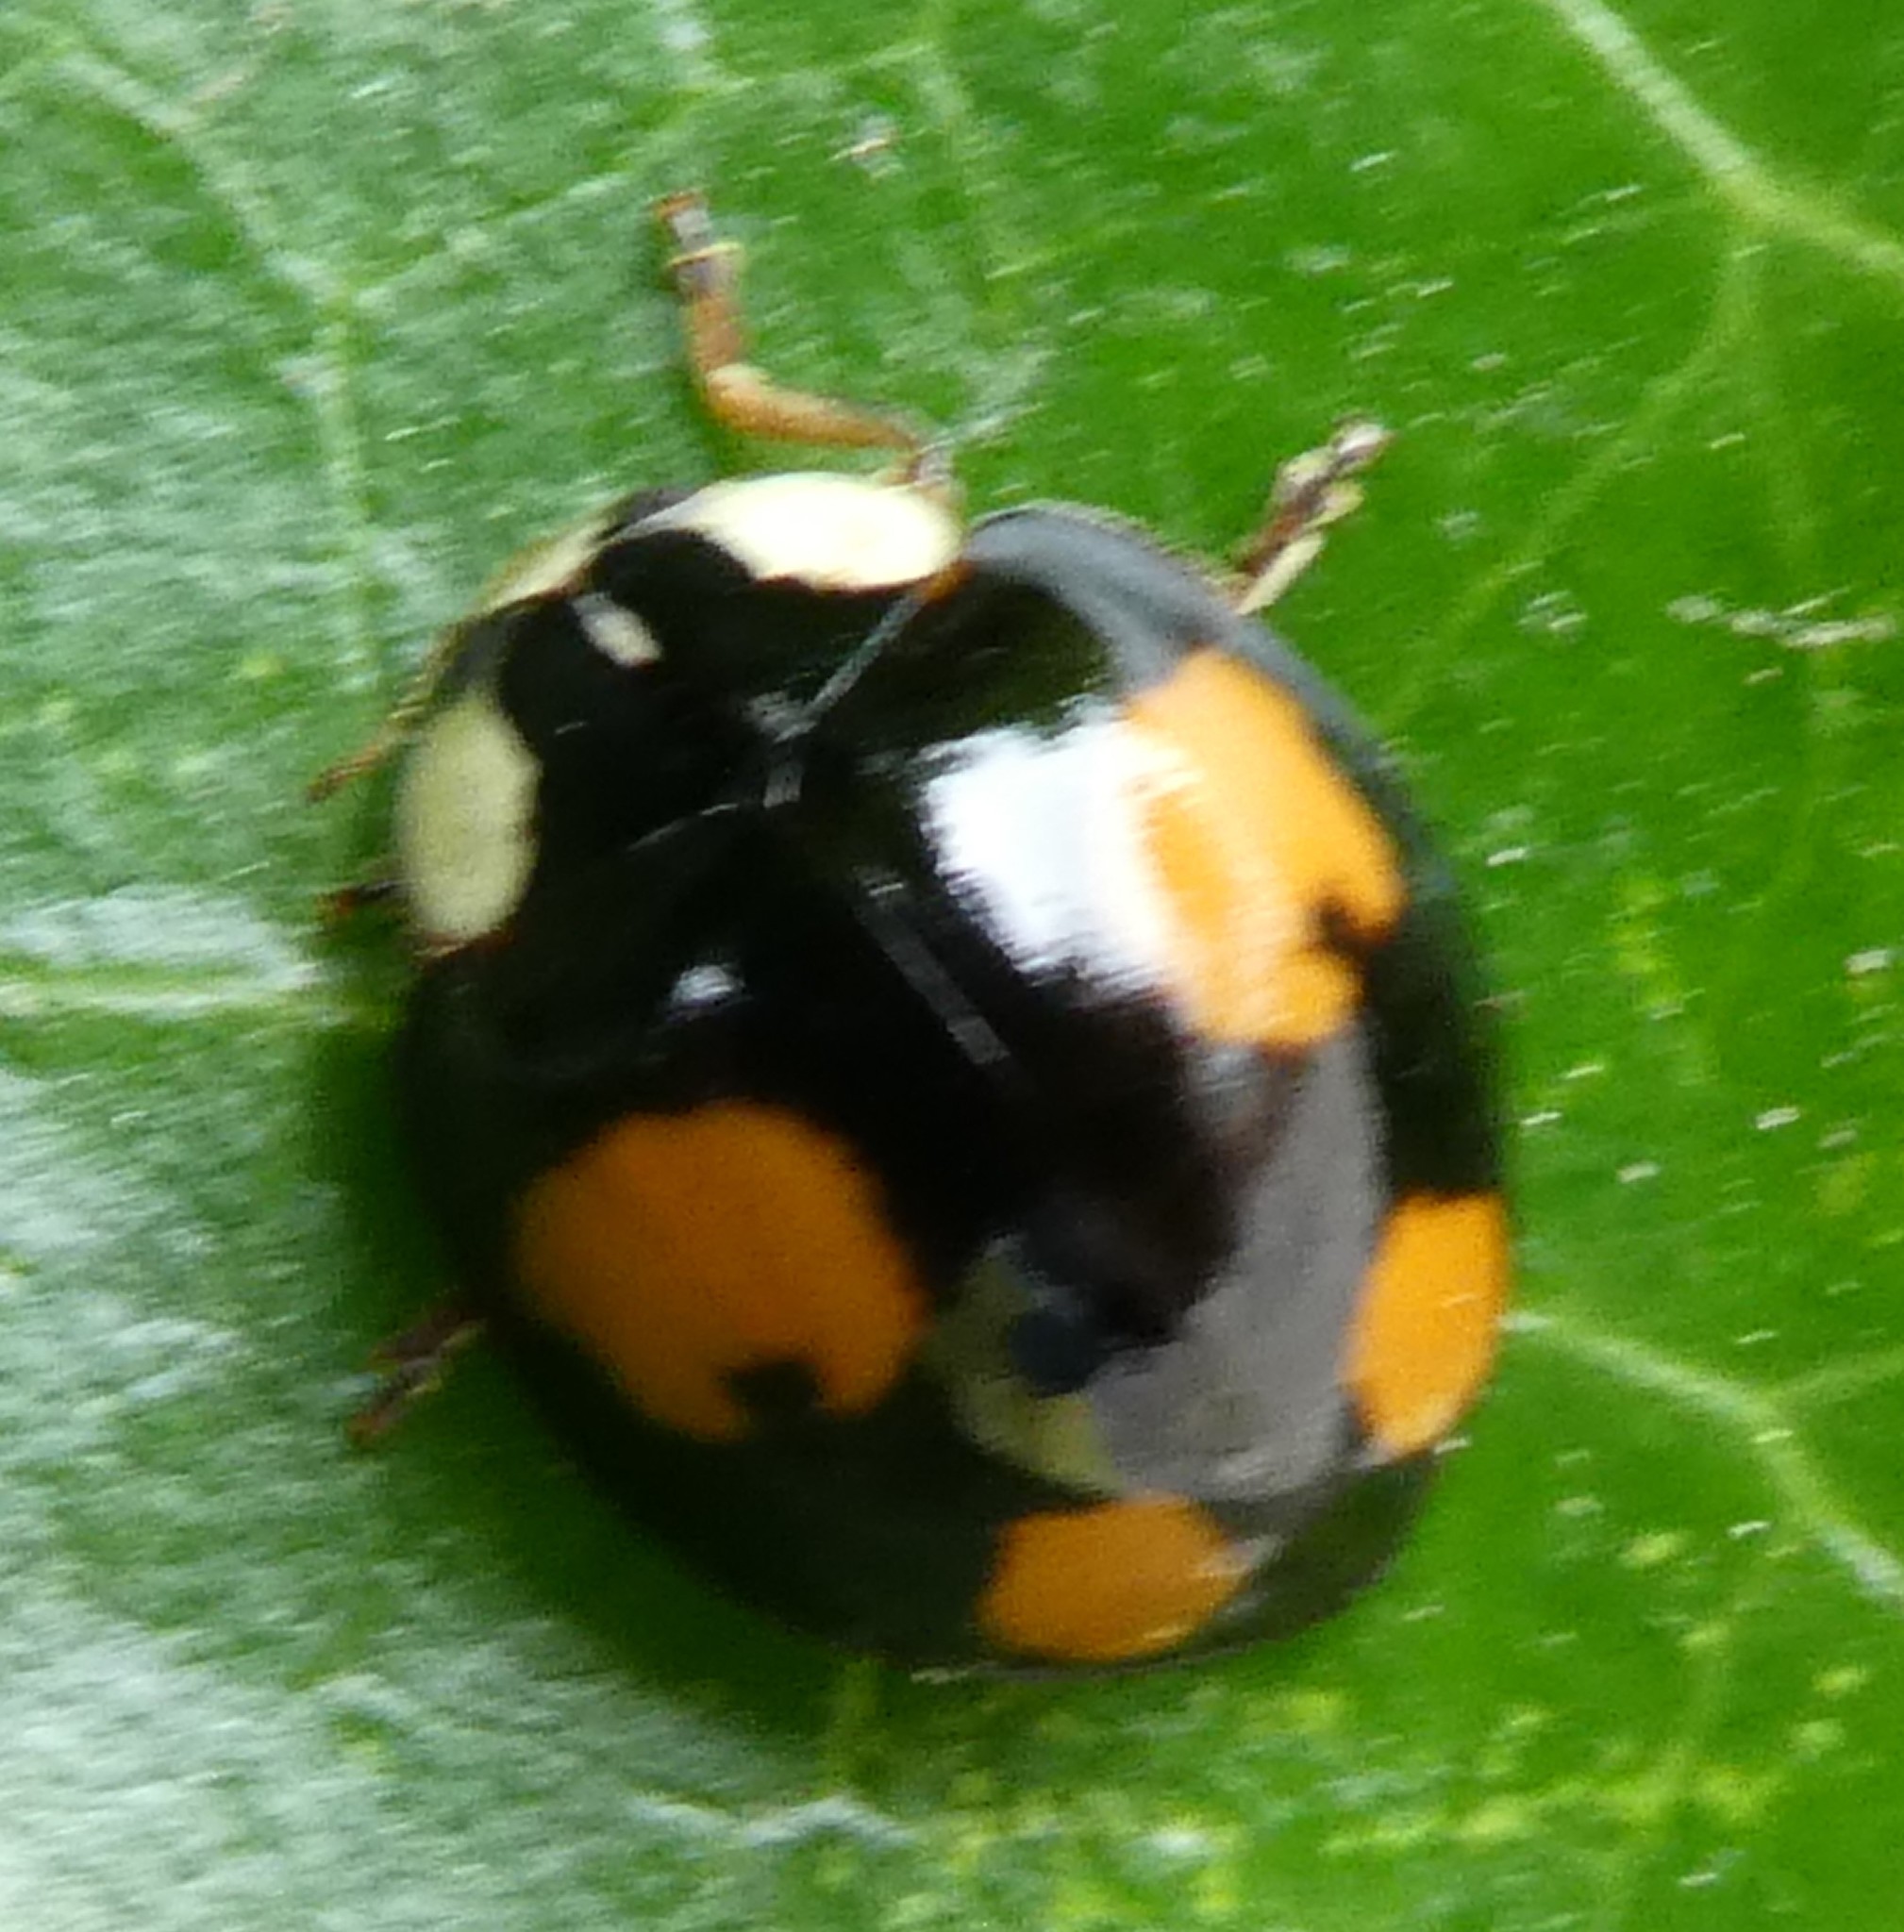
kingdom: Animalia
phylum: Arthropoda
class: Insecta
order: Coleoptera
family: Coccinellidae
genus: Harmonia
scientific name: Harmonia axyridis
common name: Harlequin ladybird
